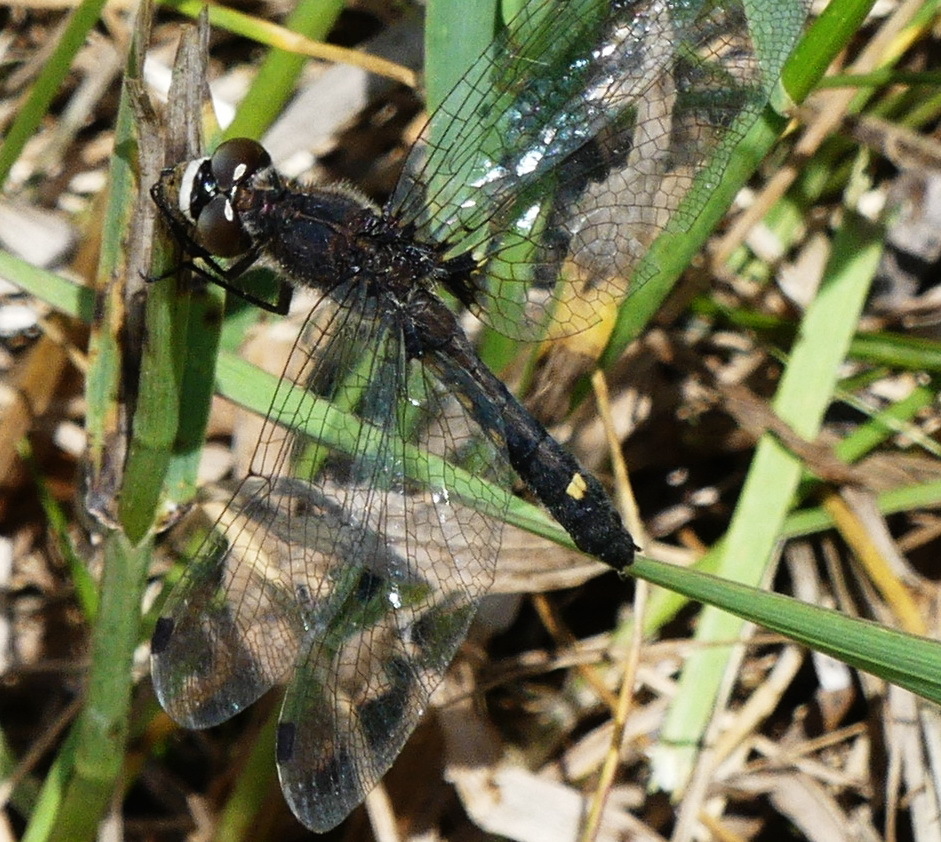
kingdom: Animalia
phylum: Arthropoda
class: Insecta
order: Odonata
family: Libellulidae
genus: Leucorrhinia
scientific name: Leucorrhinia intacta
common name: Dot-tailed whiteface
